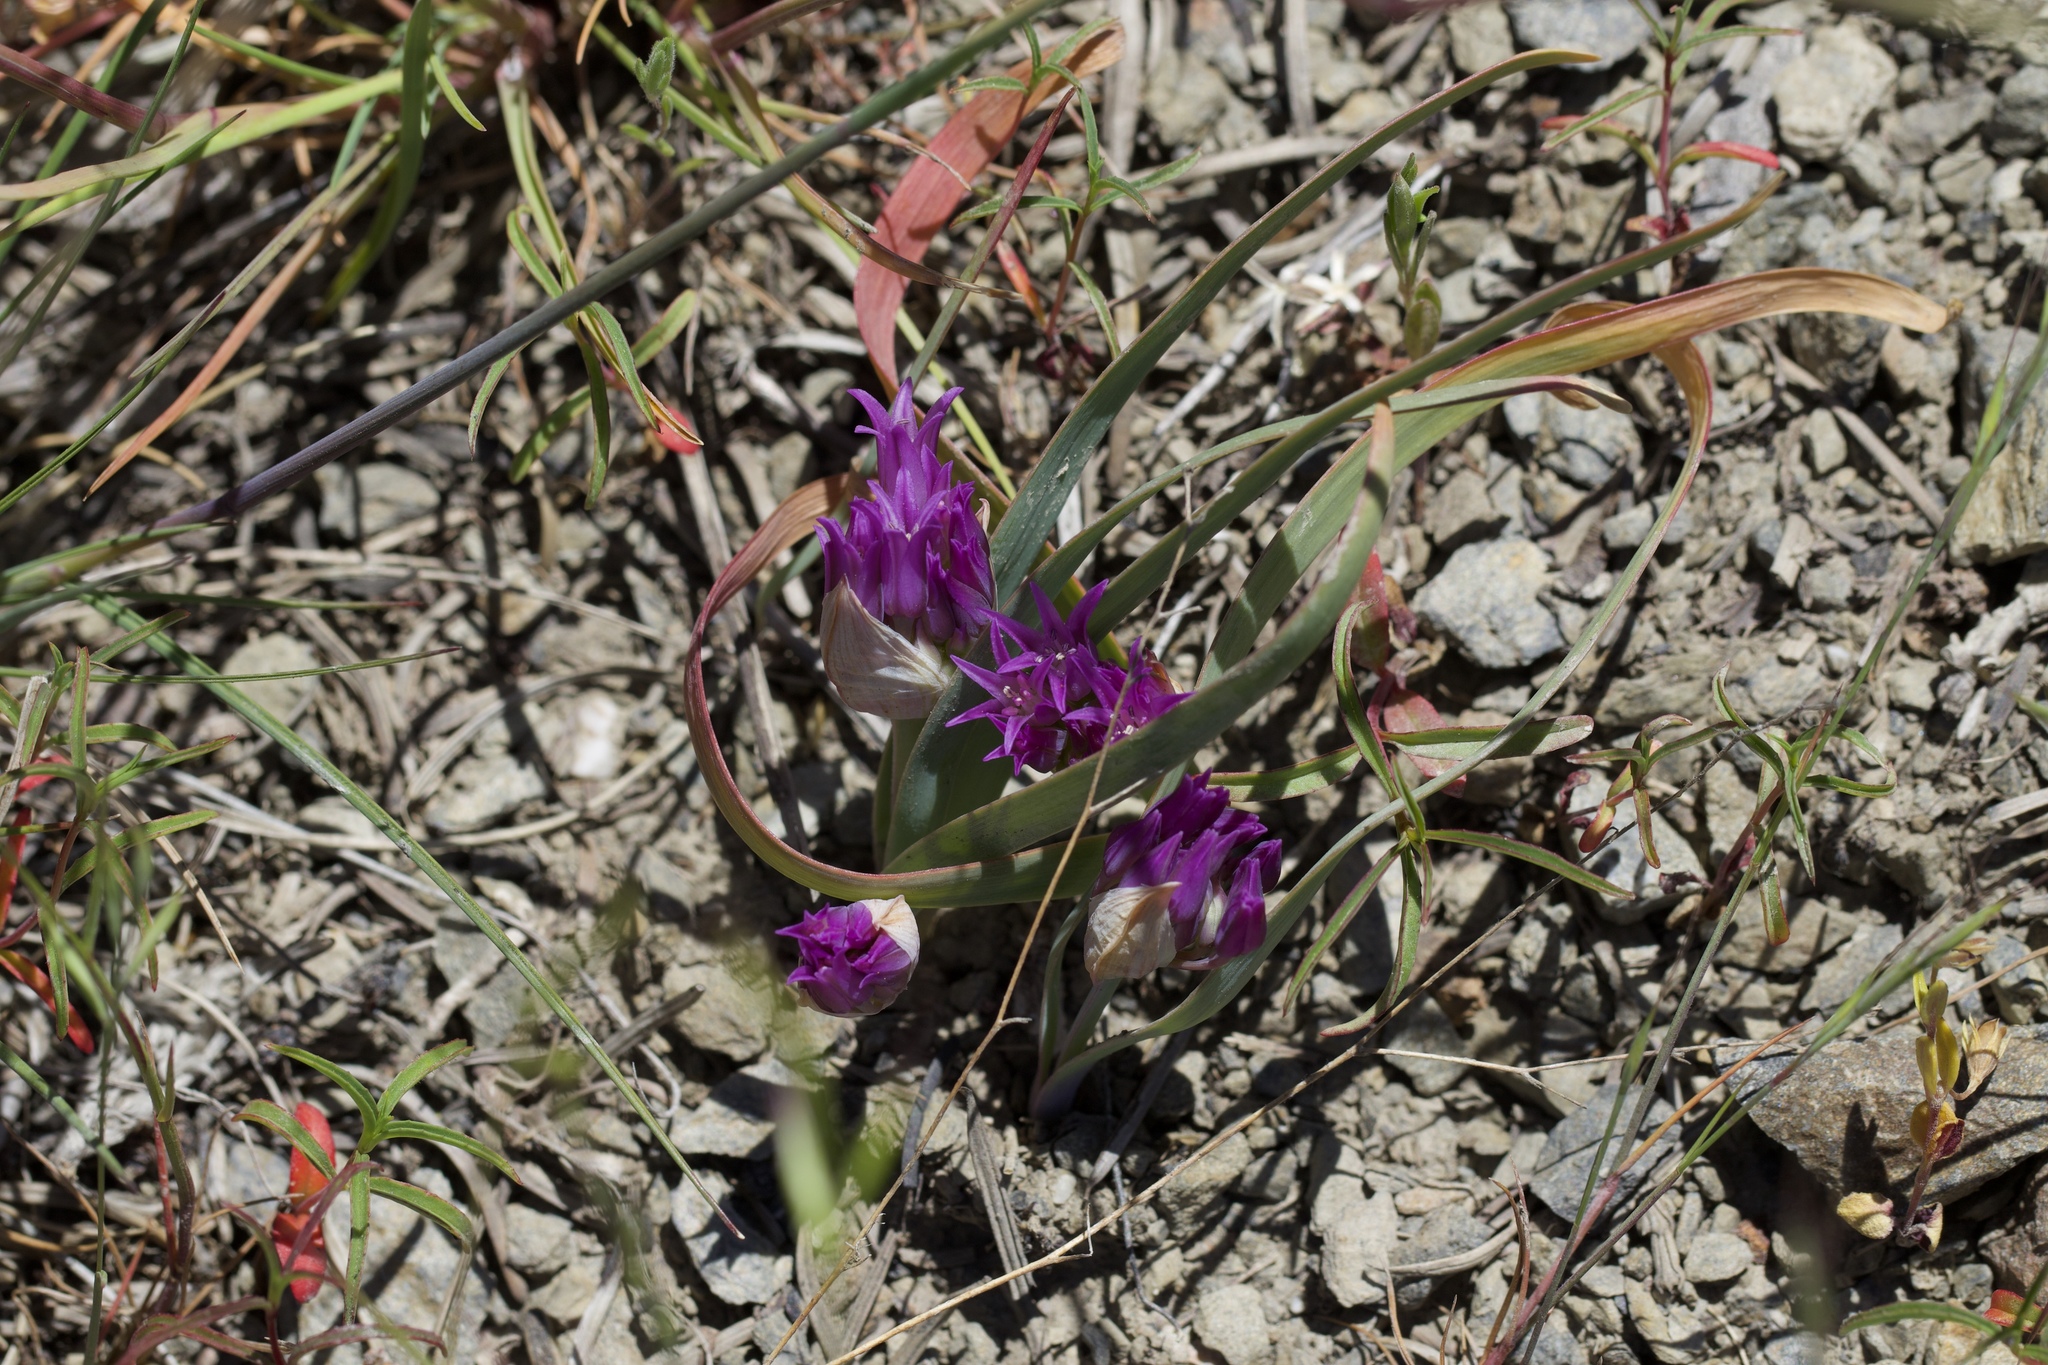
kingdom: Plantae
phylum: Tracheophyta
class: Liliopsida
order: Asparagales
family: Amaryllidaceae
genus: Allium
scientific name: Allium falcifolium
